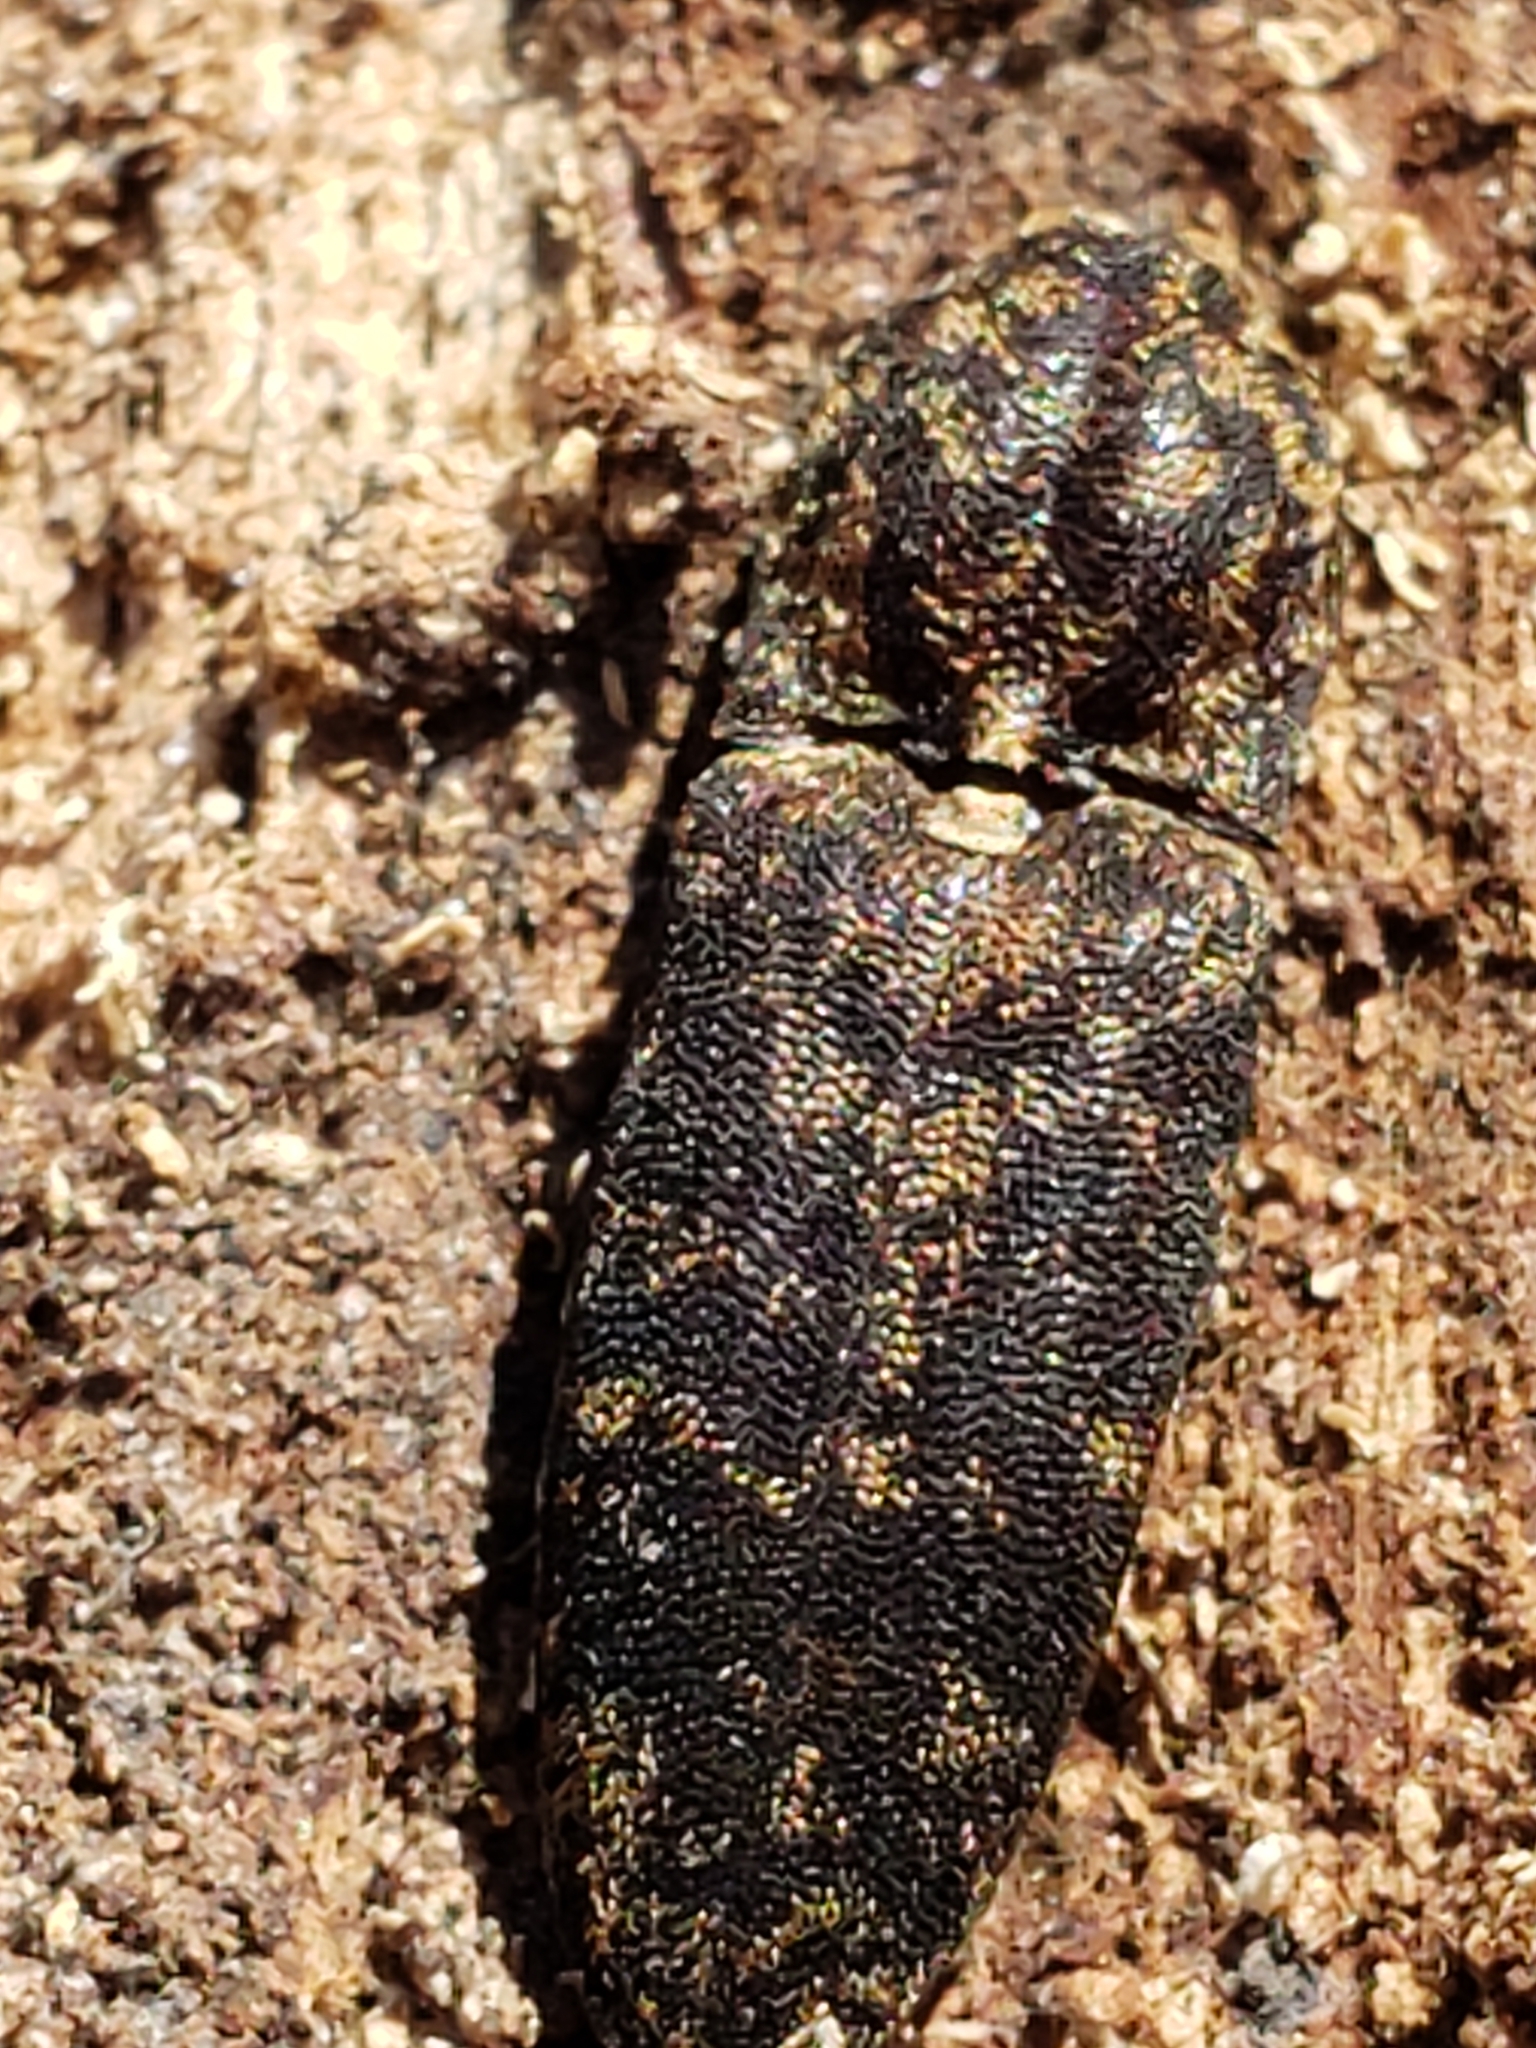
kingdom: Animalia
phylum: Arthropoda
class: Insecta
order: Coleoptera
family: Elateridae
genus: Lacon
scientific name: Lacon marmoratus
